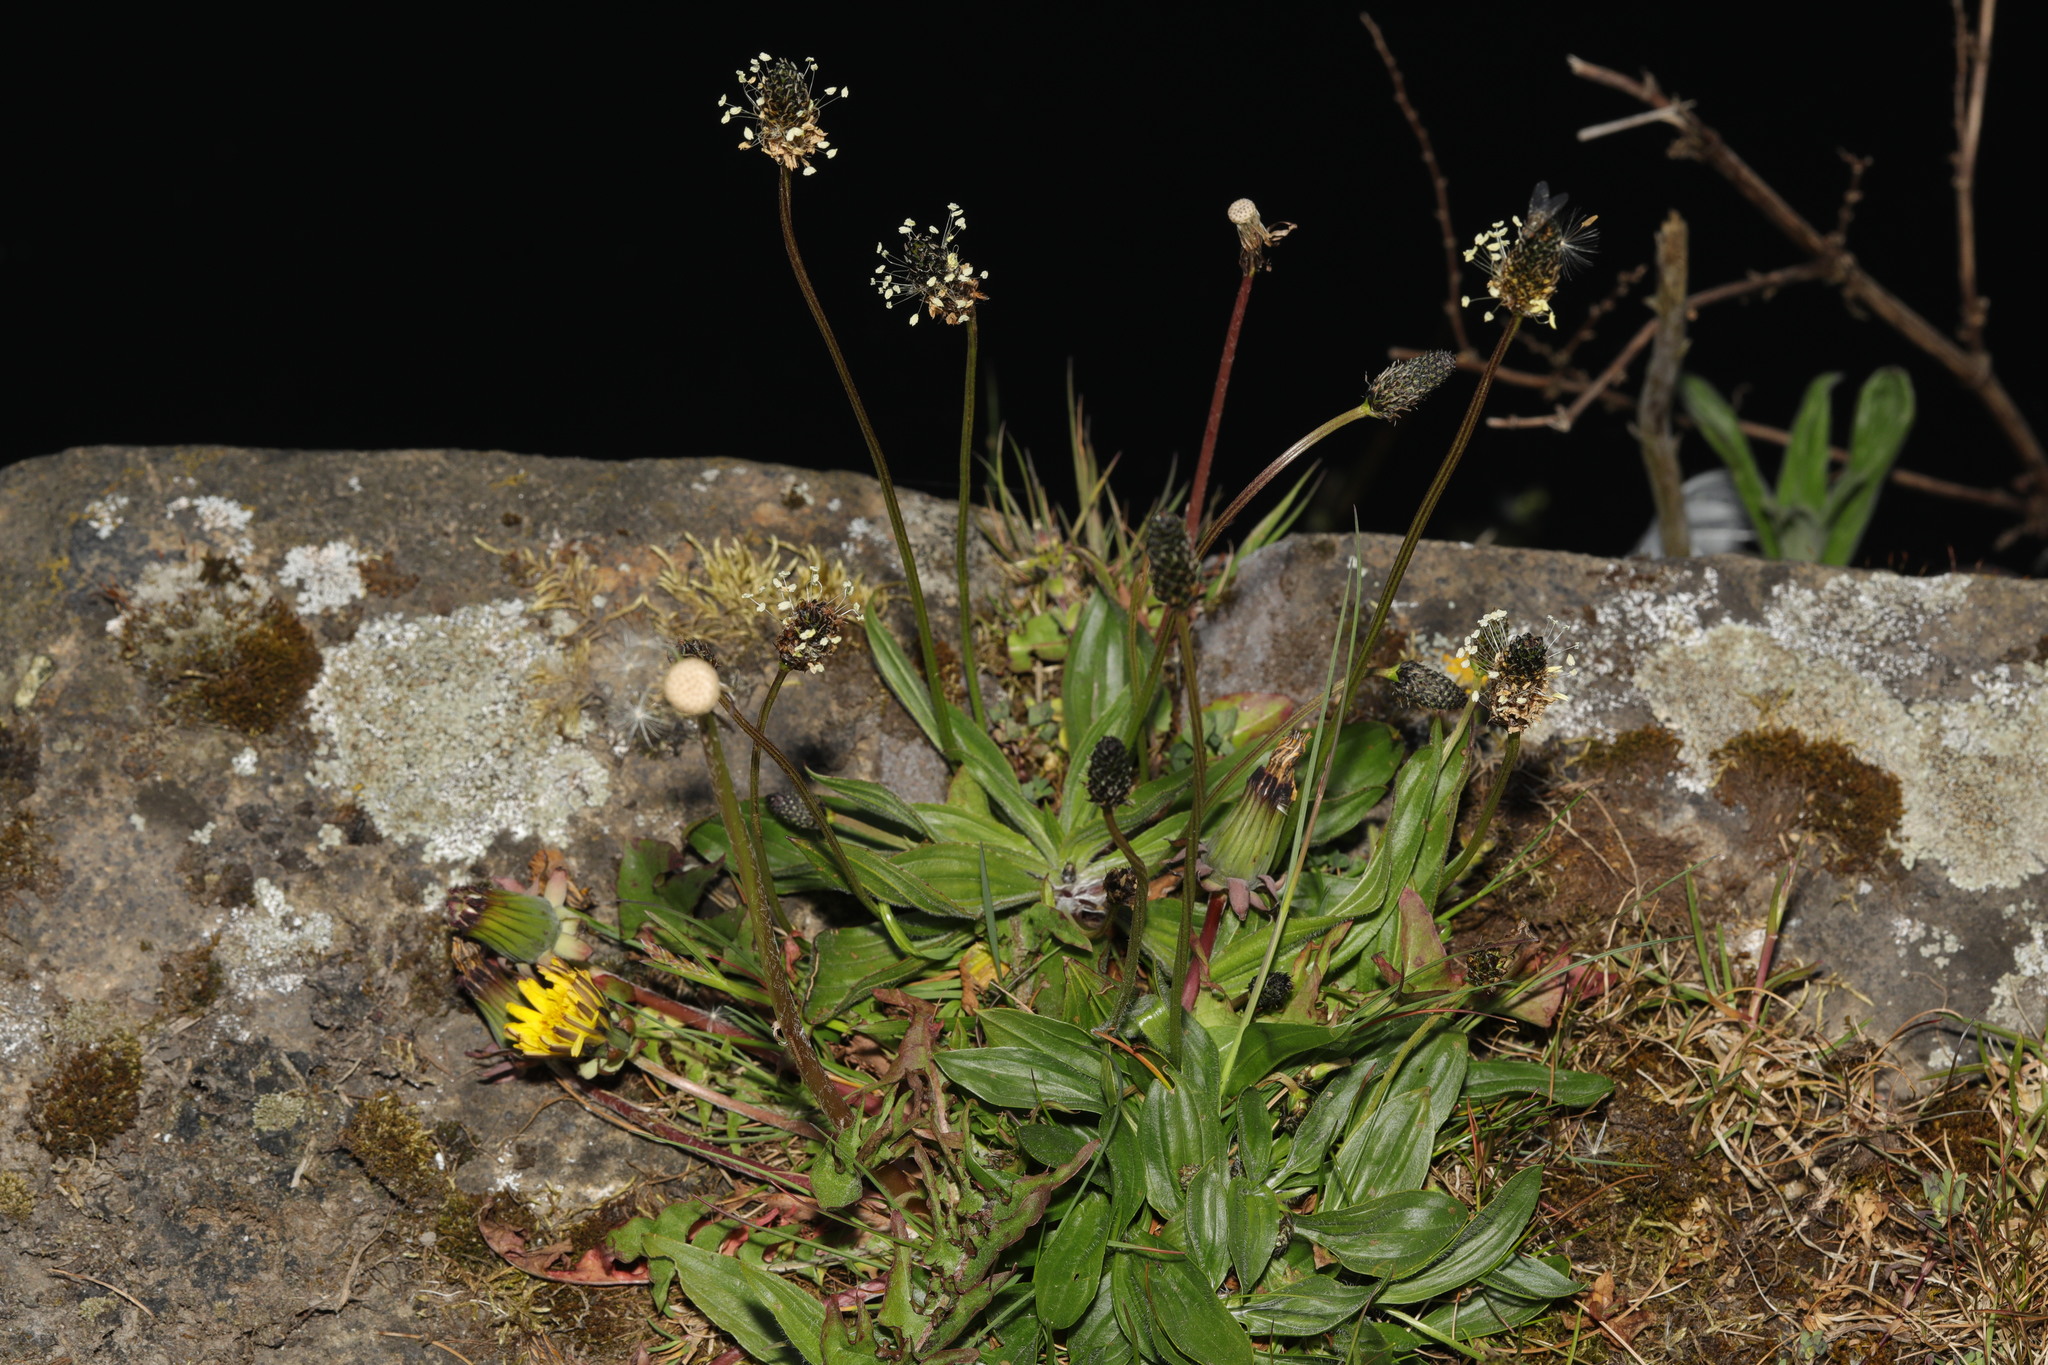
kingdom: Plantae
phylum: Tracheophyta
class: Magnoliopsida
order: Lamiales
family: Plantaginaceae
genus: Plantago
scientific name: Plantago lanceolata
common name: Ribwort plantain
